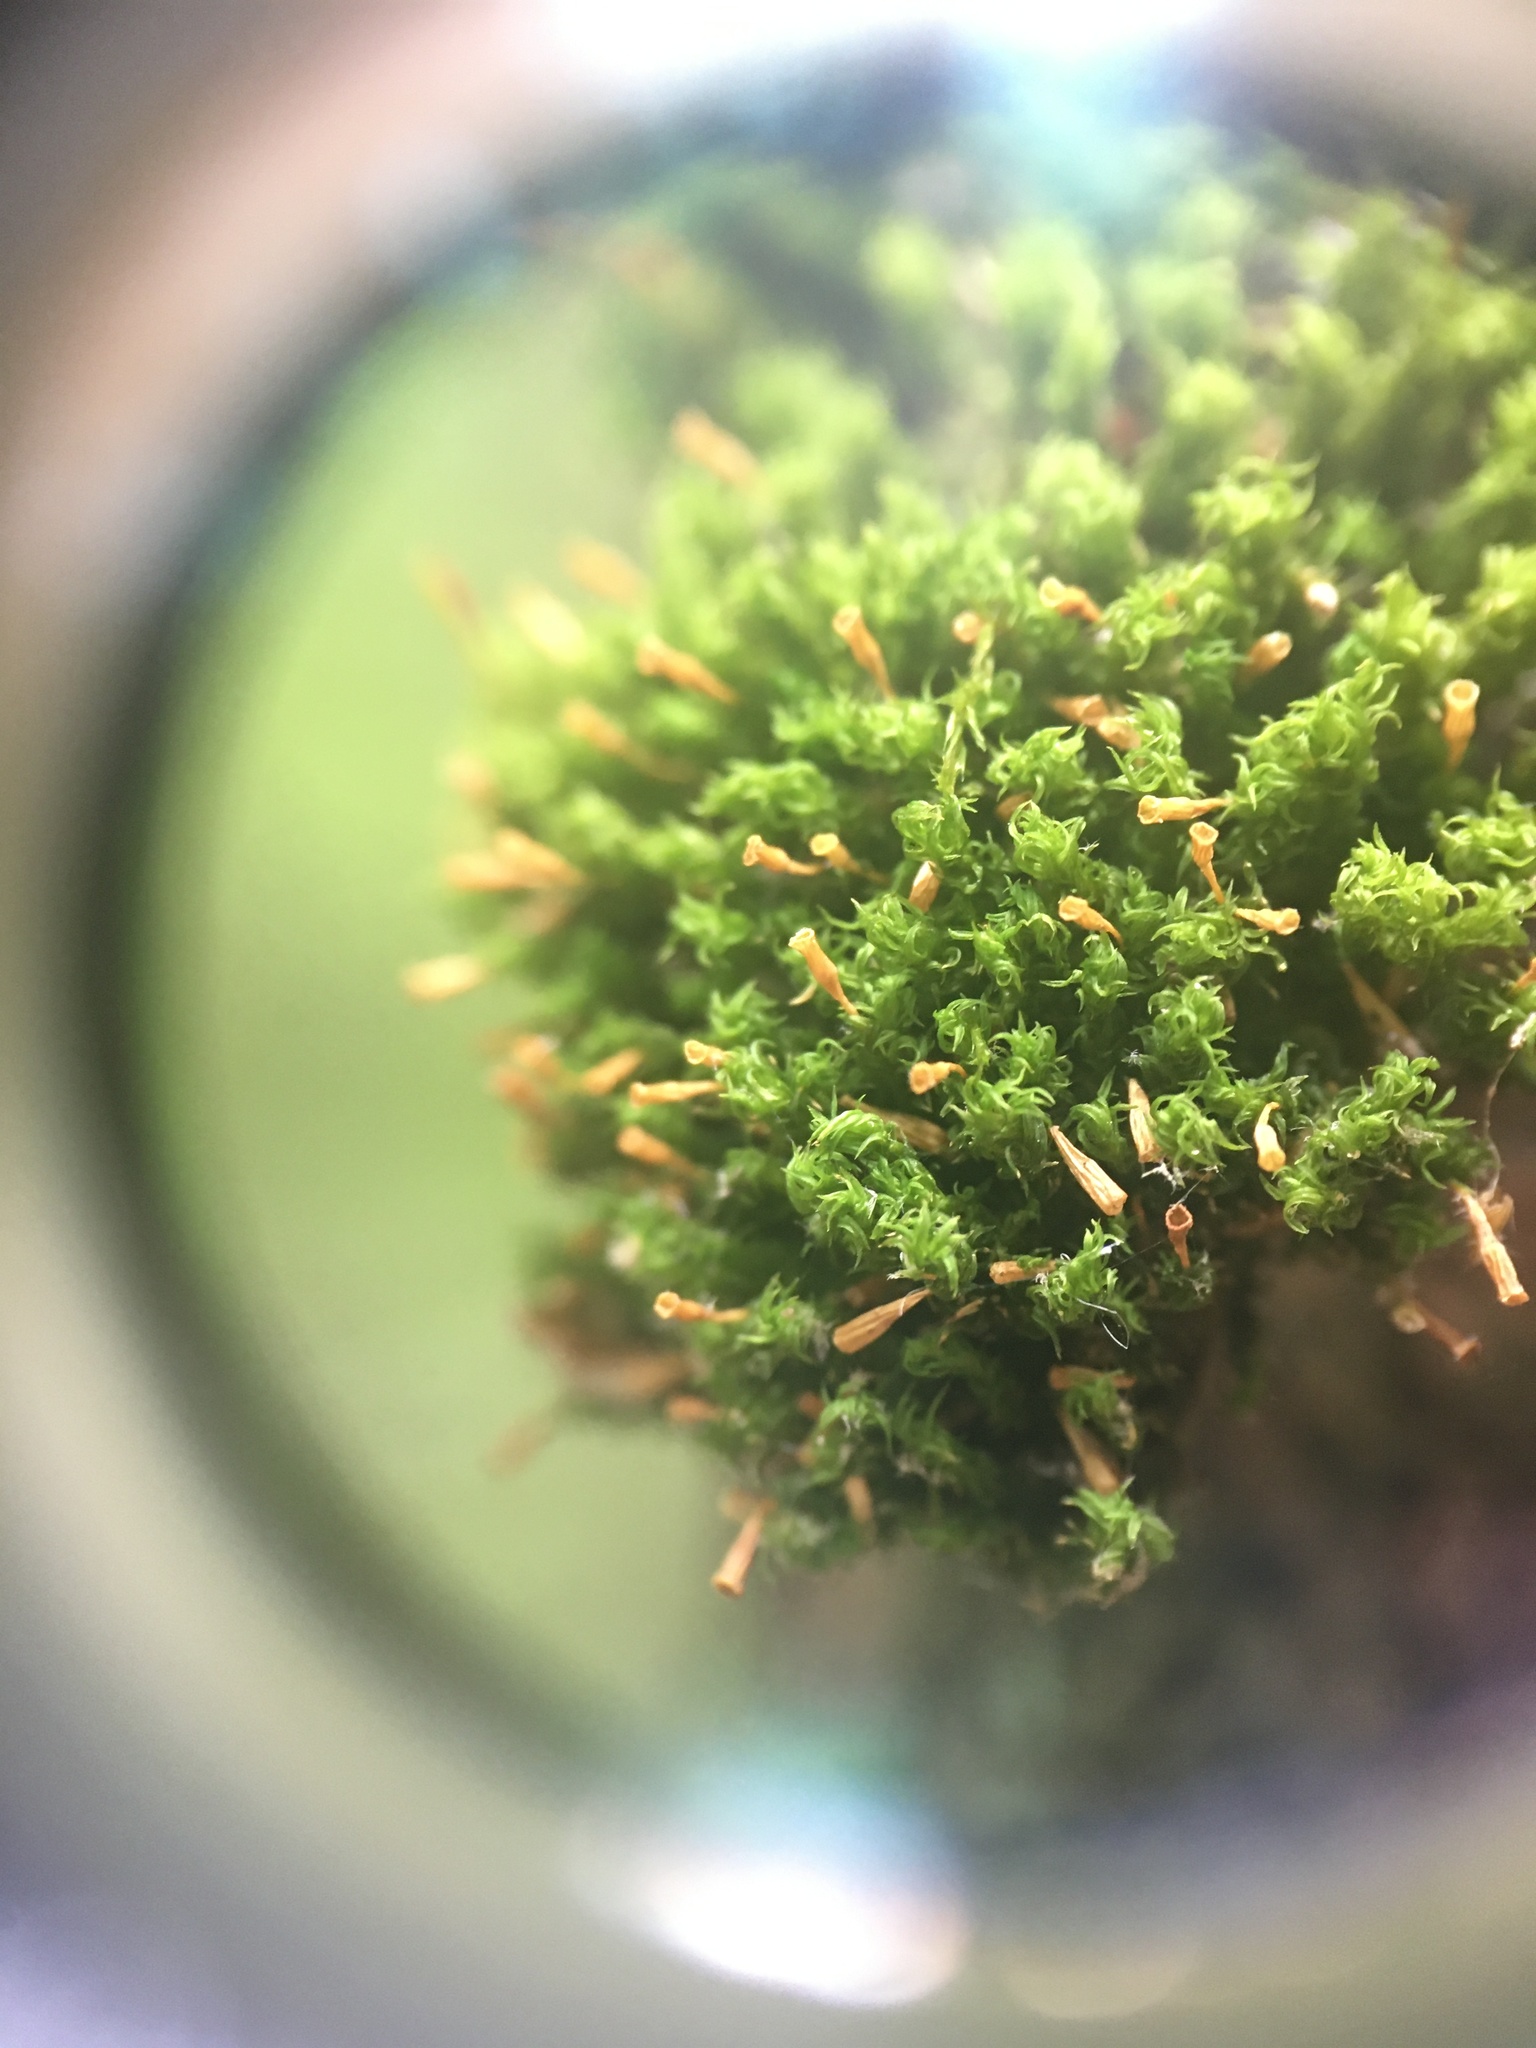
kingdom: Plantae
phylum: Bryophyta
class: Bryopsida
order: Orthotrichales
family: Orthotrichaceae
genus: Ulota
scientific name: Ulota crispa
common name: Crisped pincushion moss
